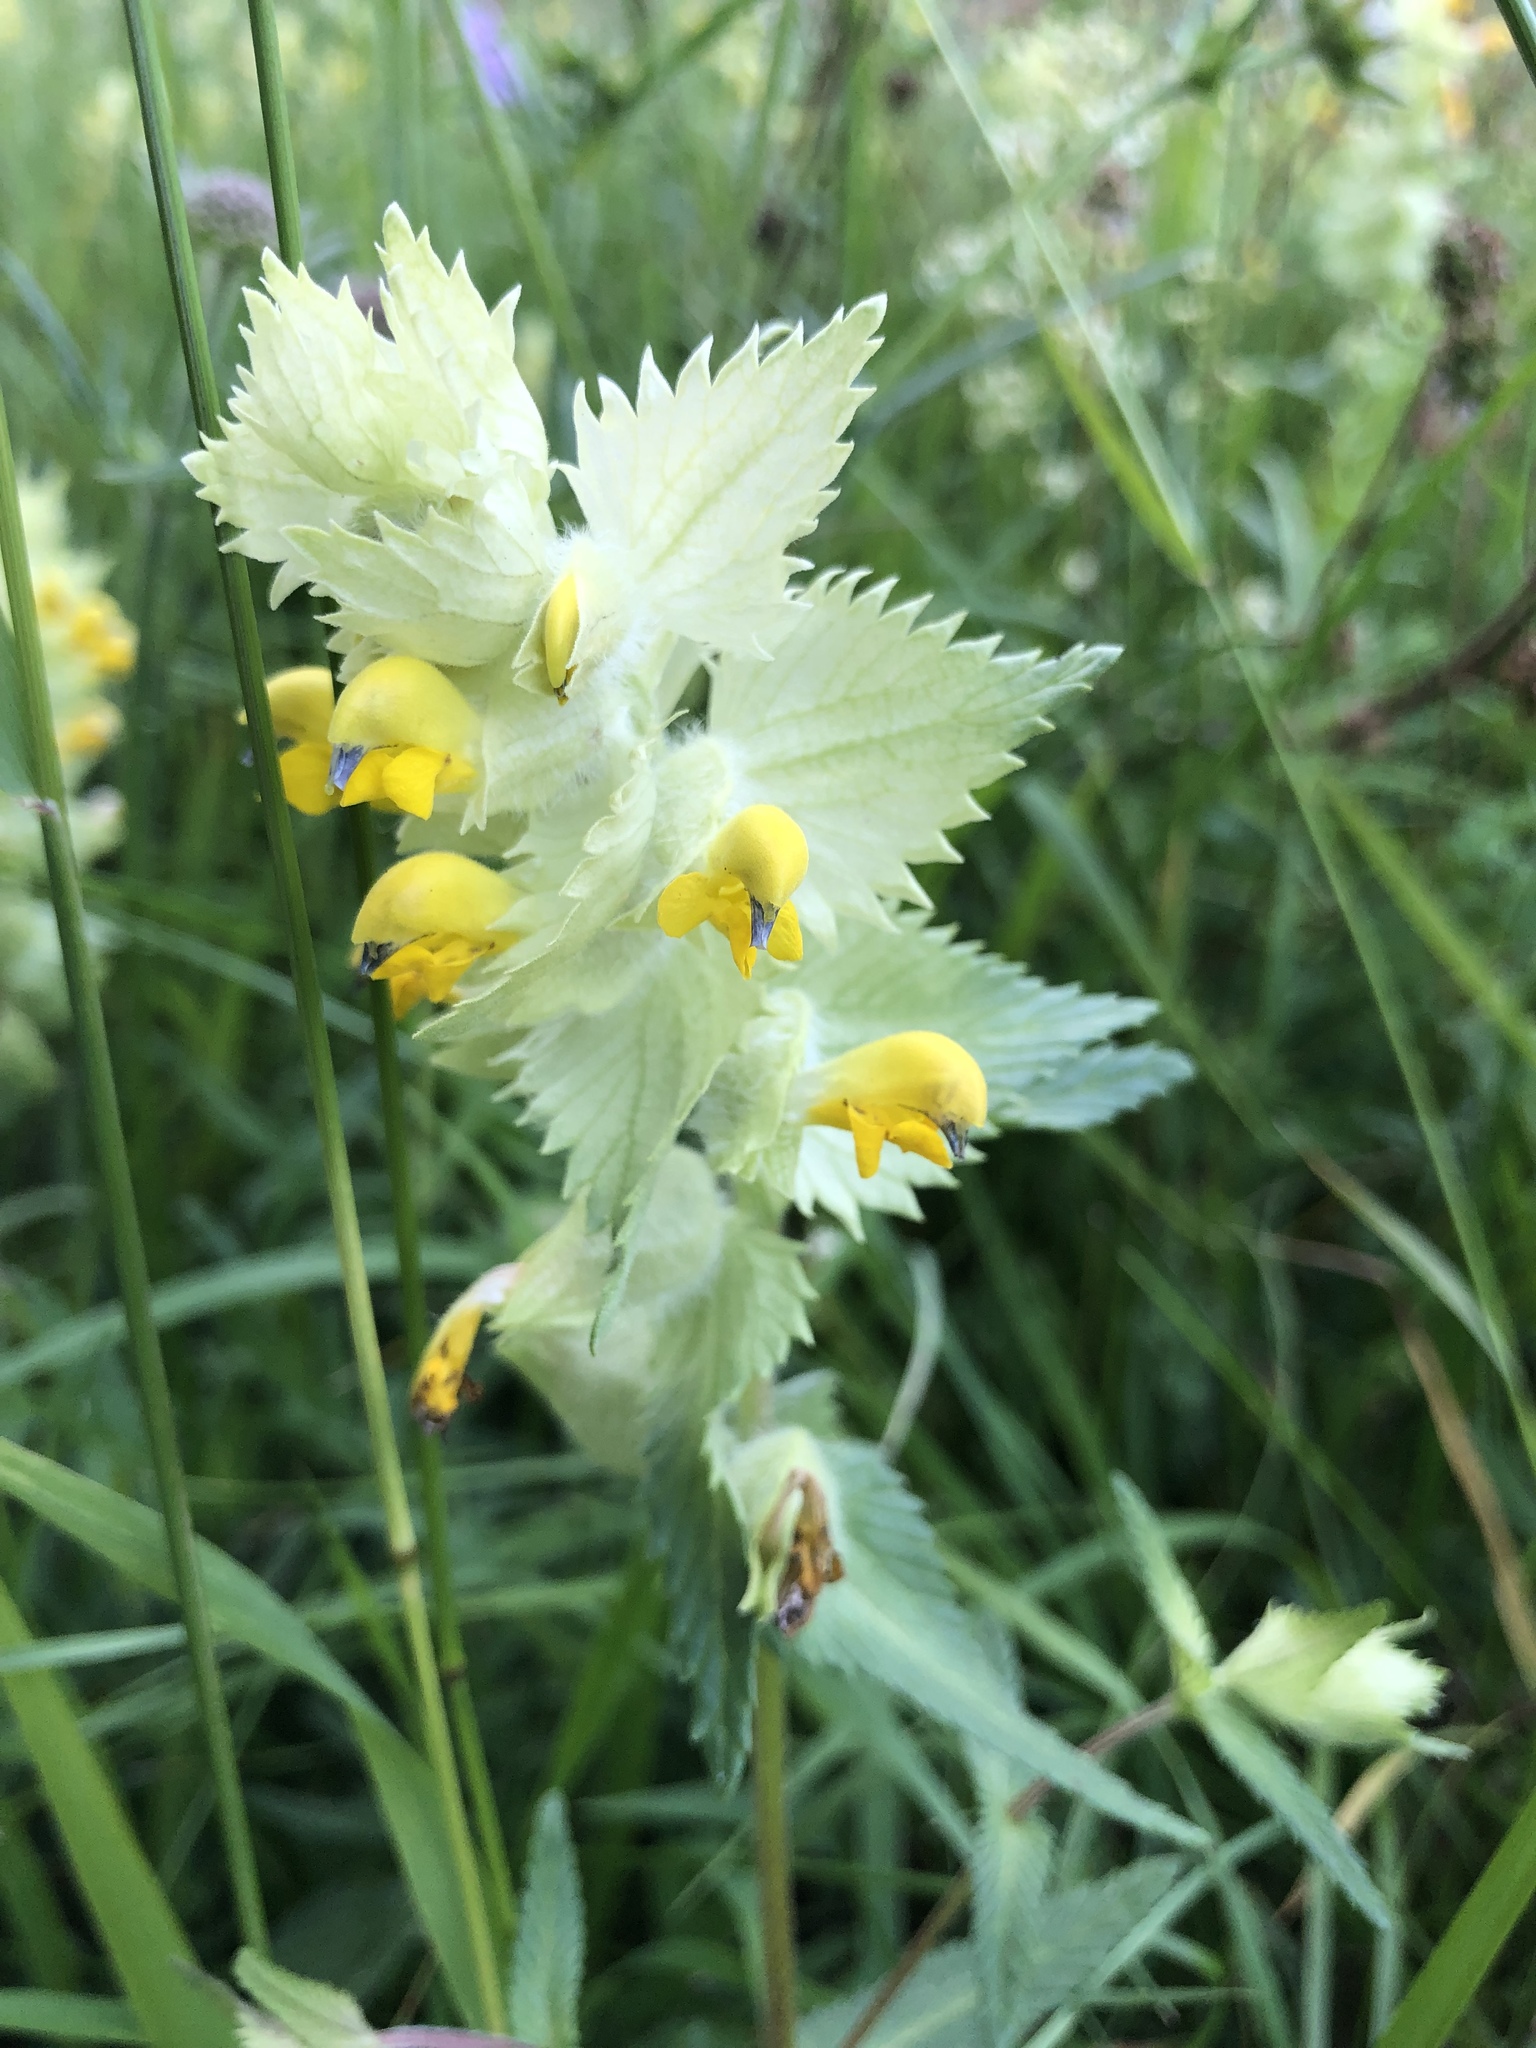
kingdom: Plantae
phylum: Tracheophyta
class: Magnoliopsida
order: Lamiales
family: Orobanchaceae
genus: Rhinanthus
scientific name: Rhinanthus alectorolophus
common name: Greater yellow-rattle
